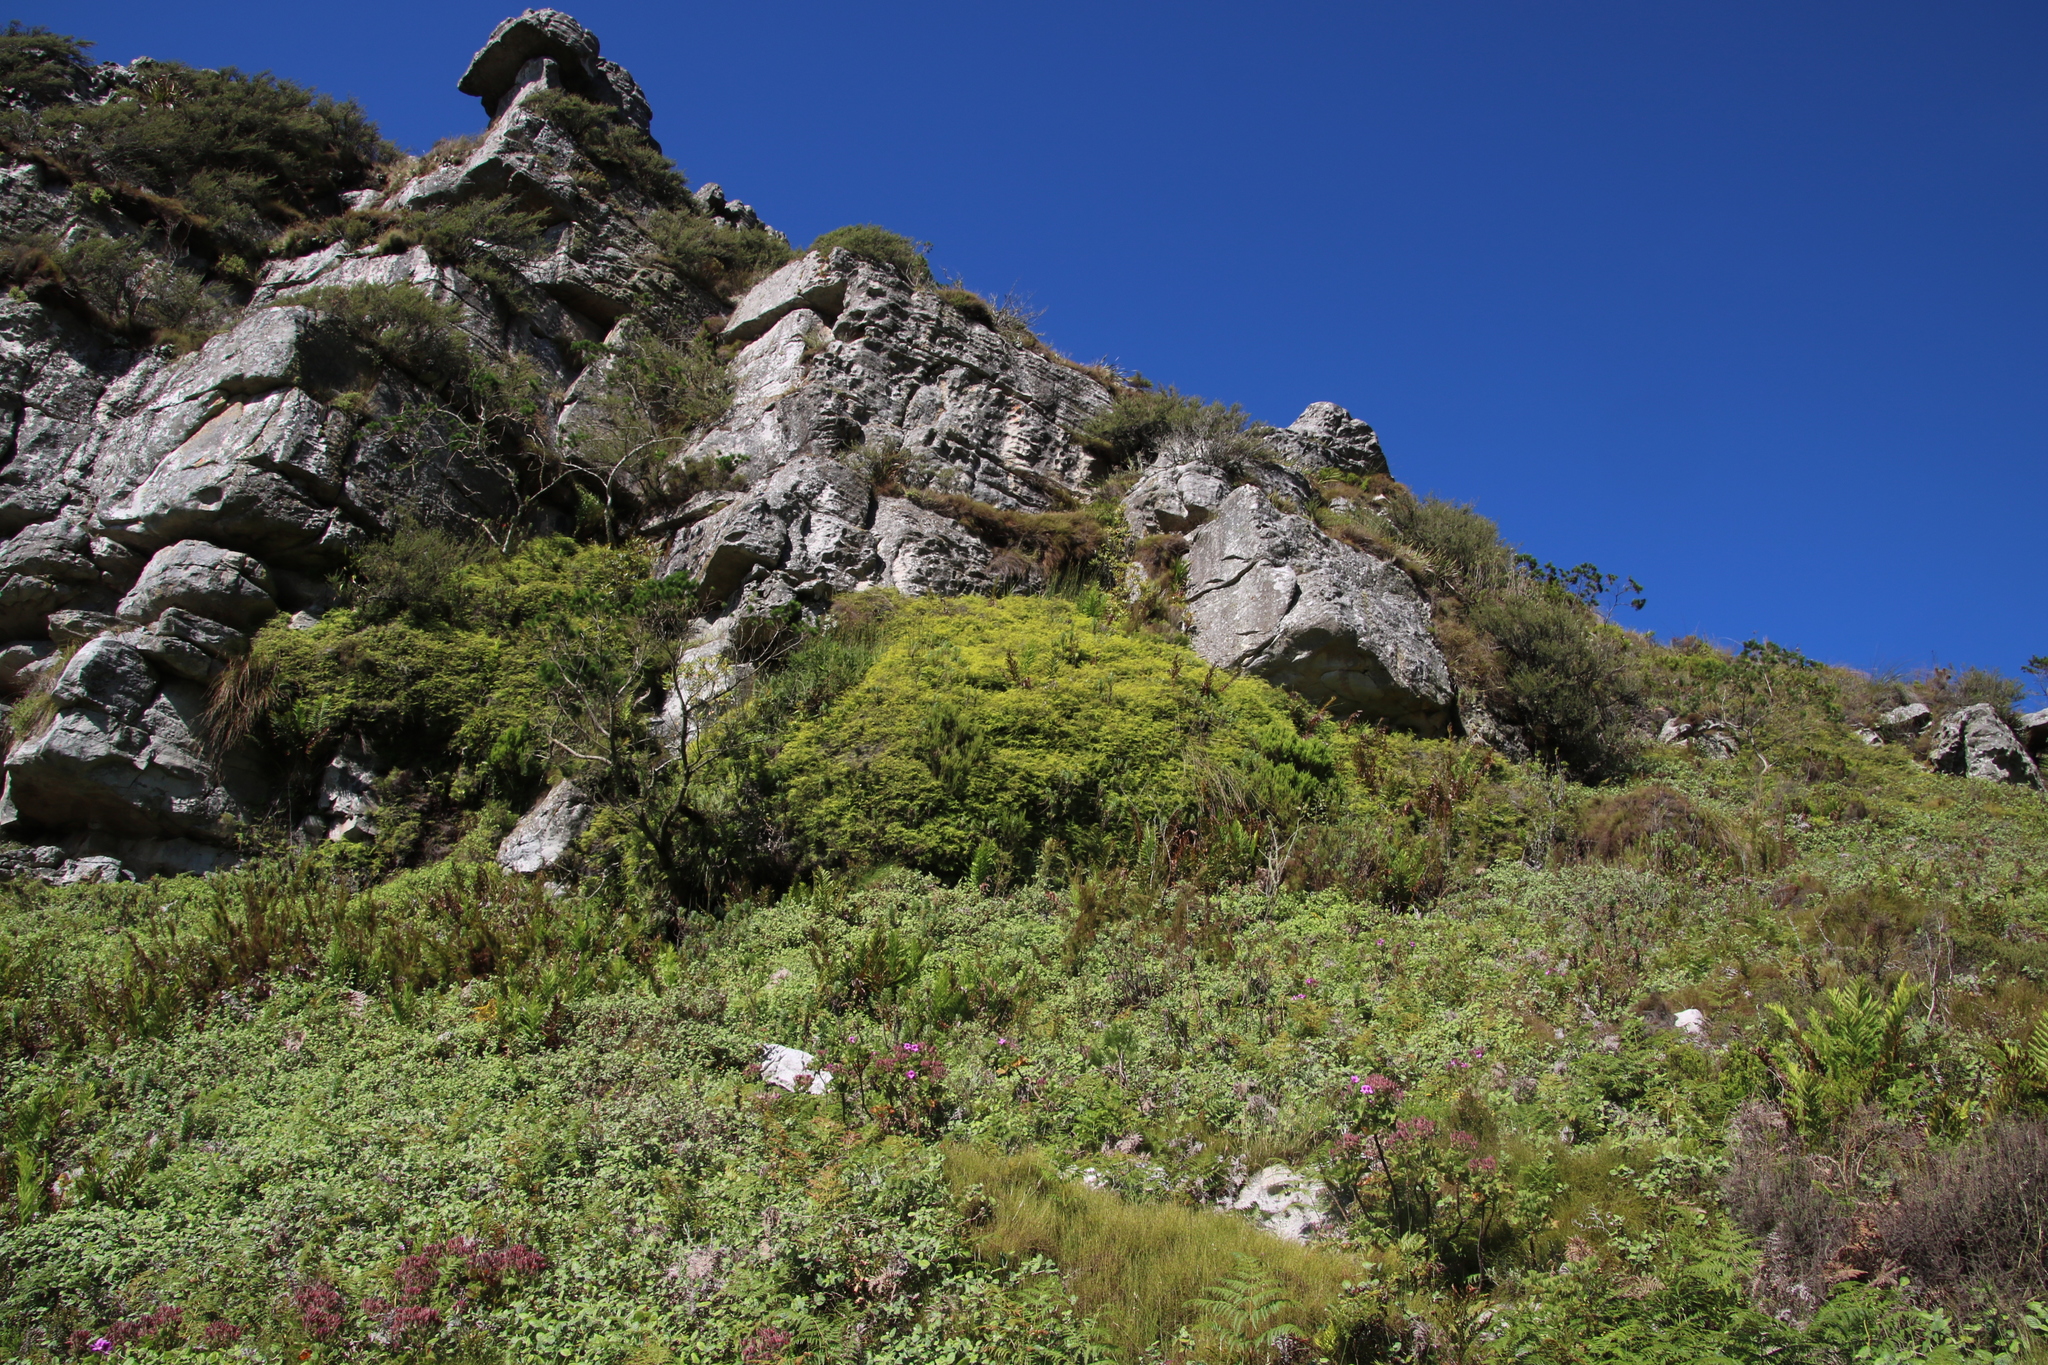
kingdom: Plantae
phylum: Tracheophyta
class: Polypodiopsida
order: Gleicheniales
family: Gleicheniaceae
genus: Gleichenia
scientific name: Gleichenia polypodioides
